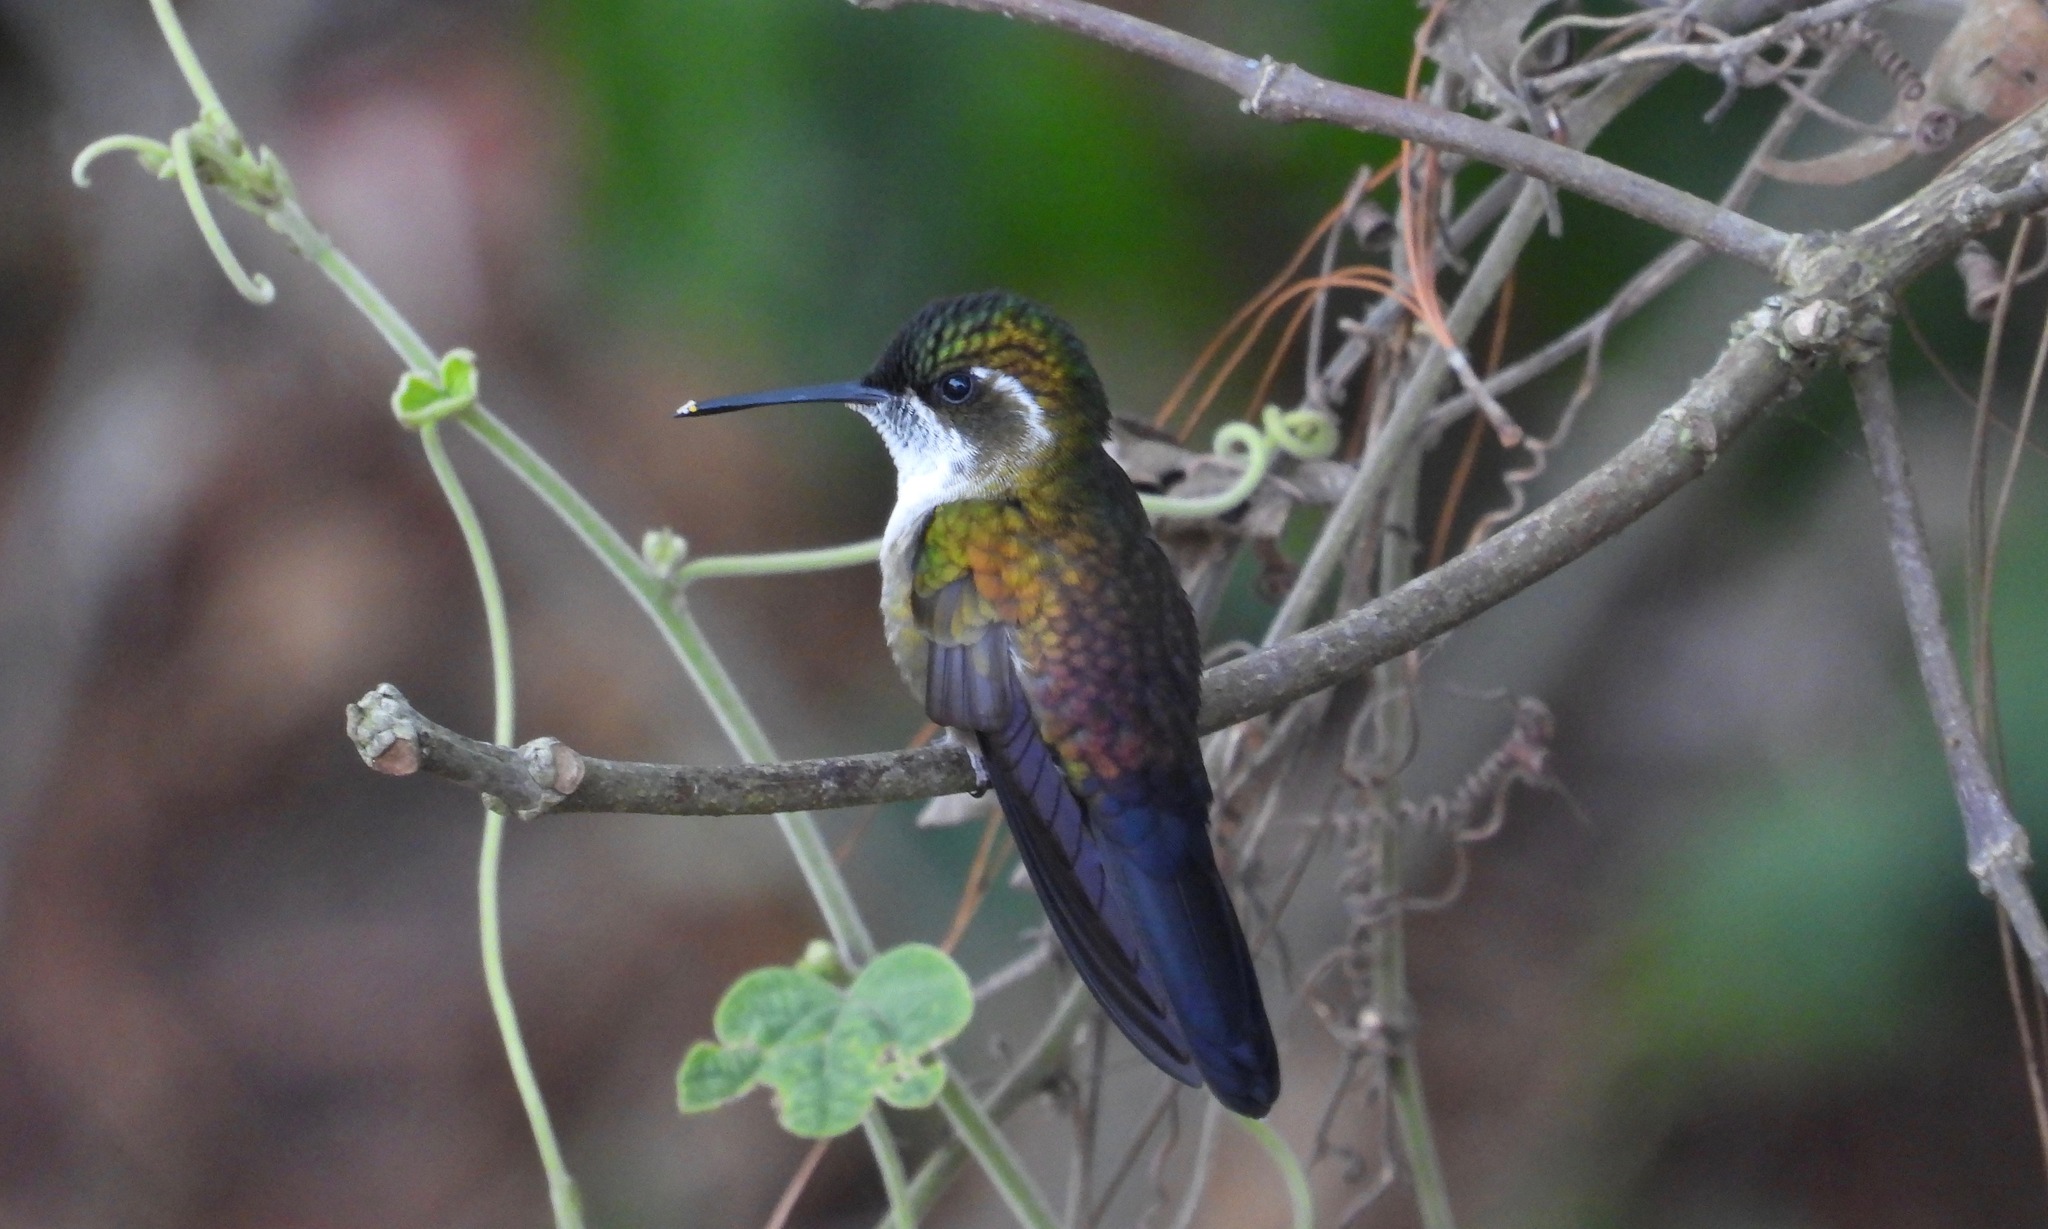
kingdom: Animalia
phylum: Chordata
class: Aves
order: Apodiformes
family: Trochilidae
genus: Lampornis
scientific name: Lampornis viridipallens
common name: Green-throated mountain-gem
